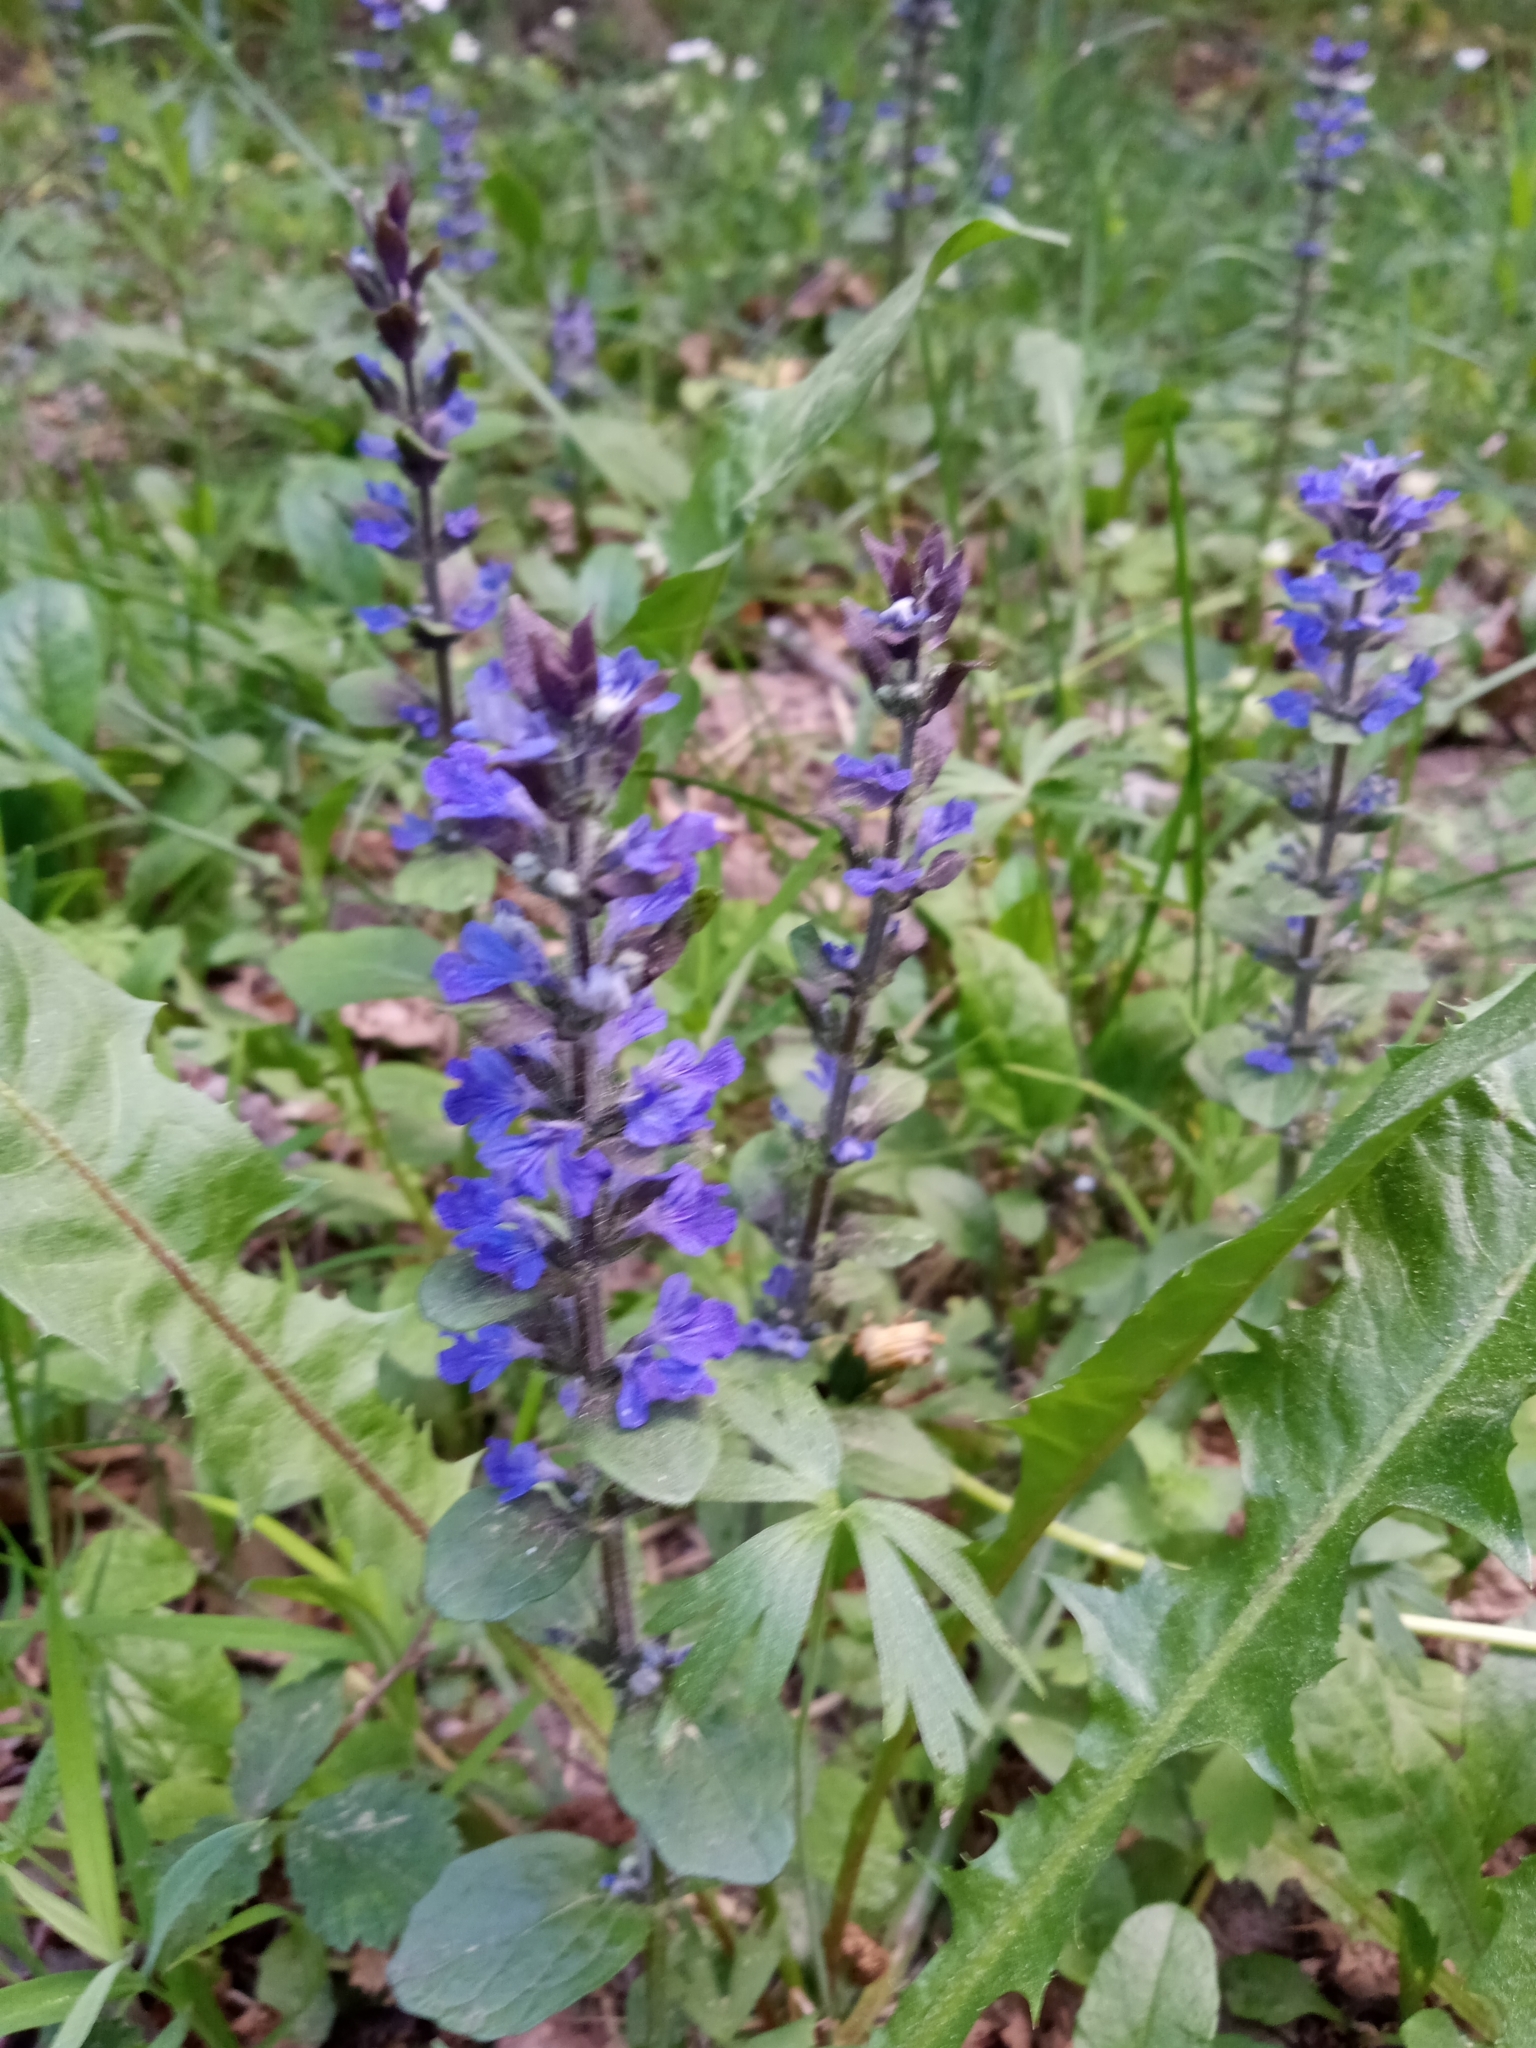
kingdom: Plantae
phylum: Tracheophyta
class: Magnoliopsida
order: Lamiales
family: Lamiaceae
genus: Ajuga
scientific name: Ajuga reptans
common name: Bugle
